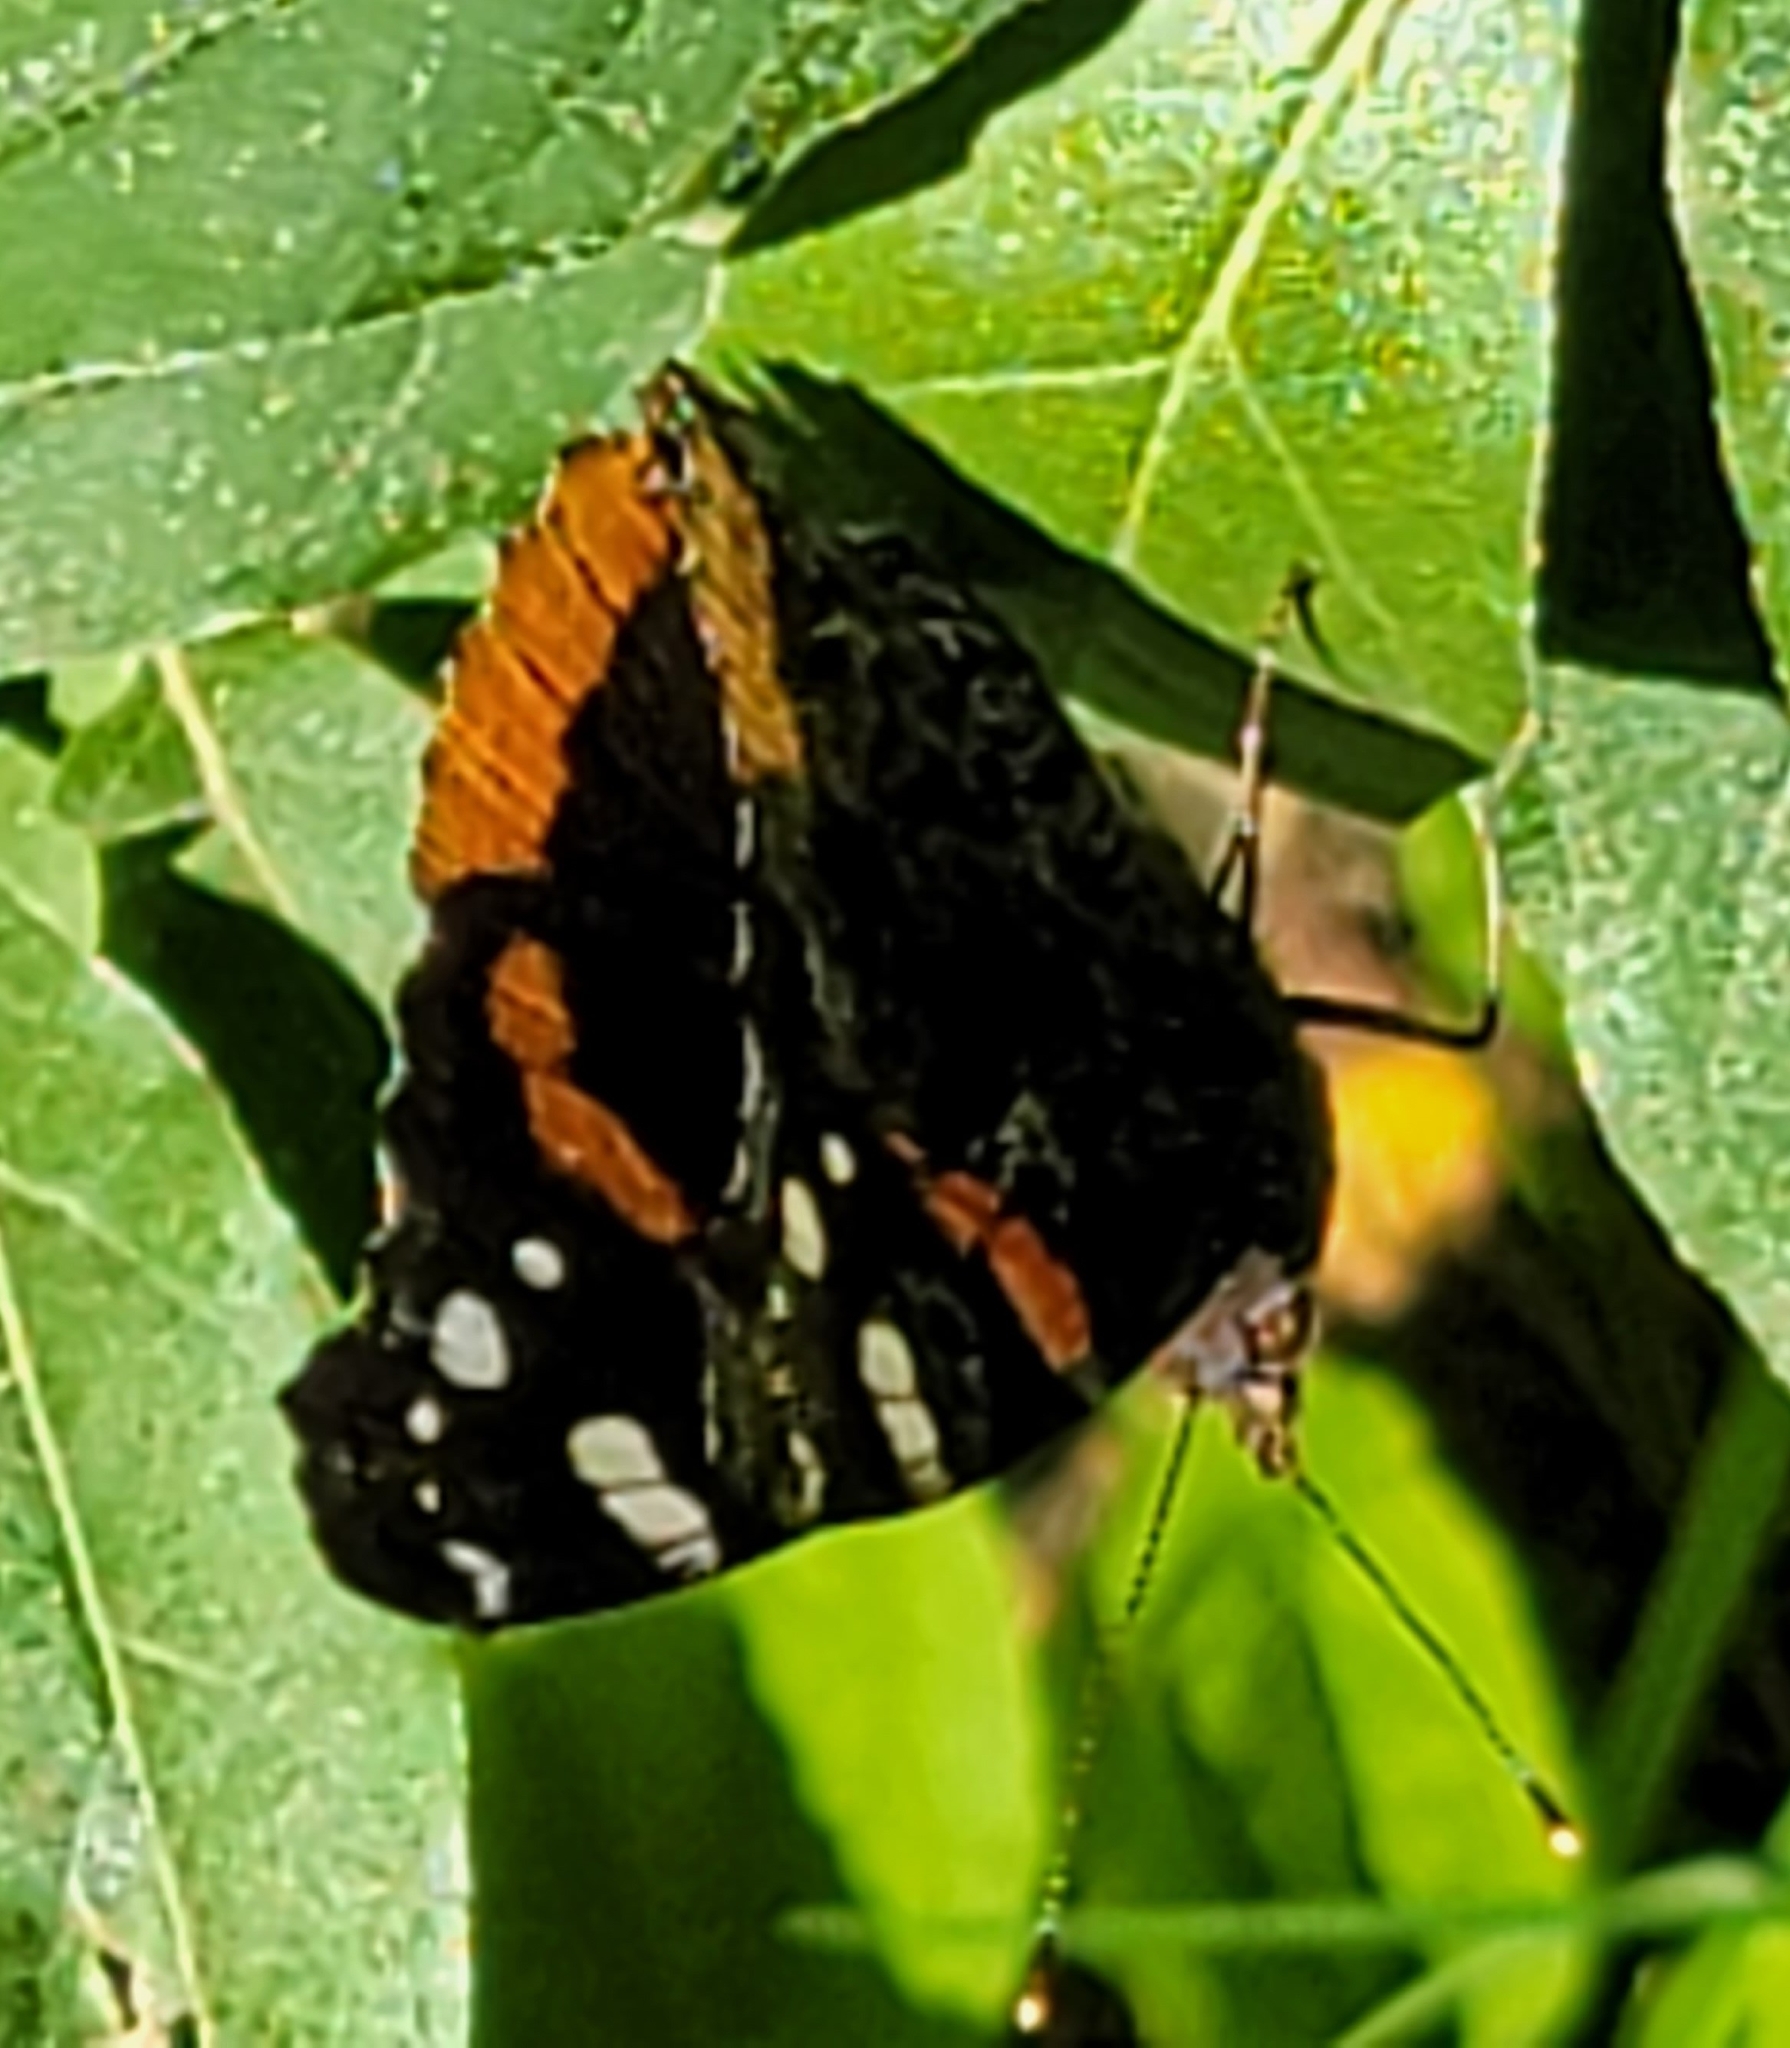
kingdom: Animalia
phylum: Arthropoda
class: Insecta
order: Lepidoptera
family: Nymphalidae
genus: Vanessa
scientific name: Vanessa atalanta
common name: Red admiral
